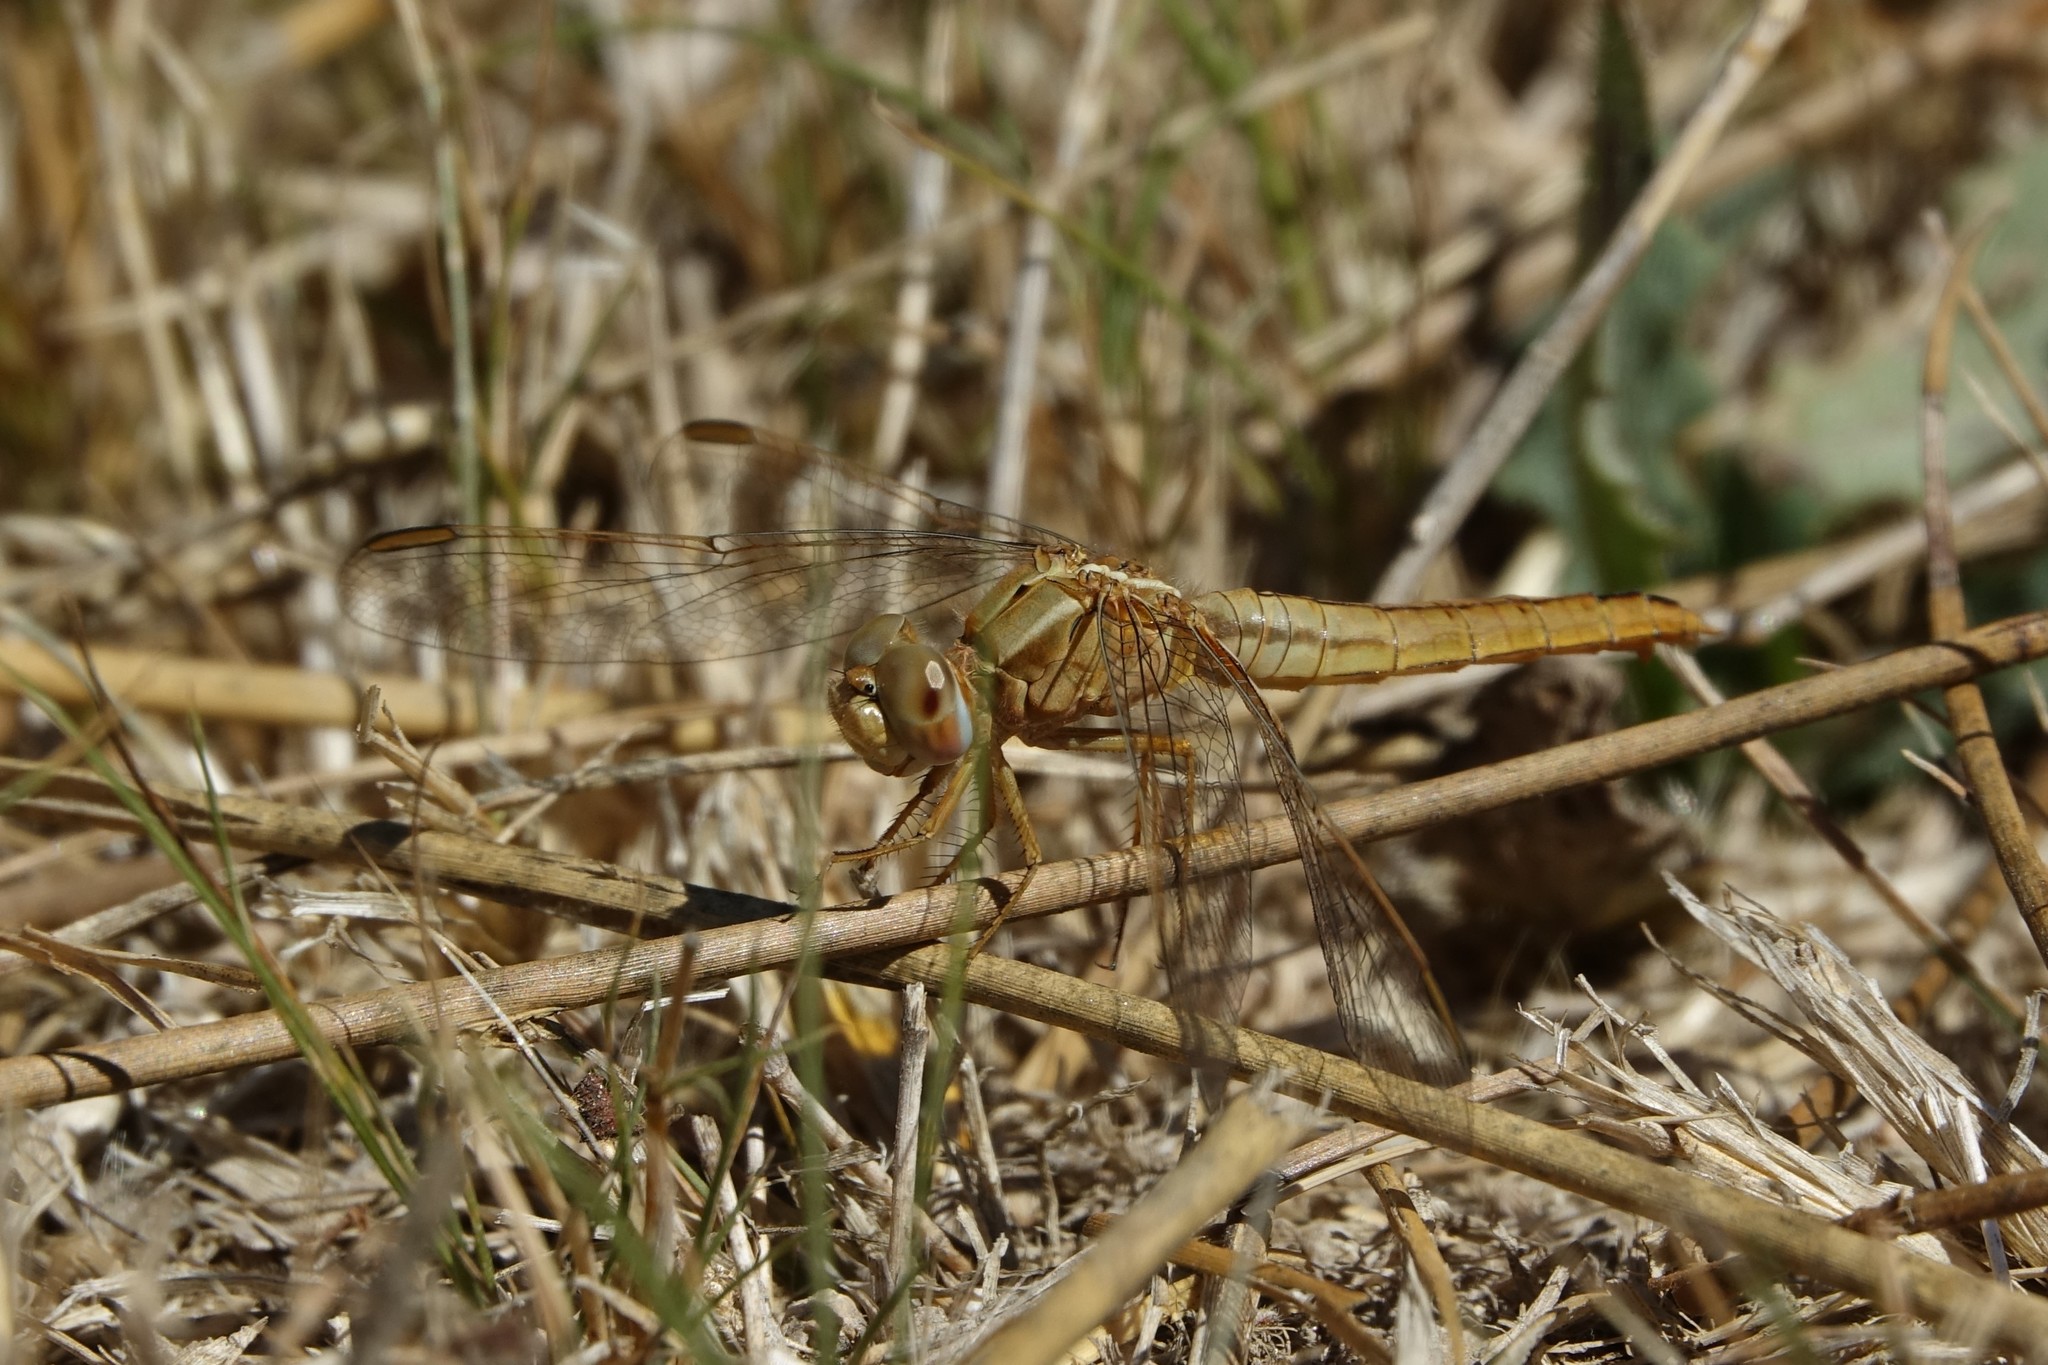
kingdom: Animalia
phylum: Arthropoda
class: Insecta
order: Odonata
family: Libellulidae
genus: Crocothemis
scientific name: Crocothemis erythraea
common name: Scarlet dragonfly
